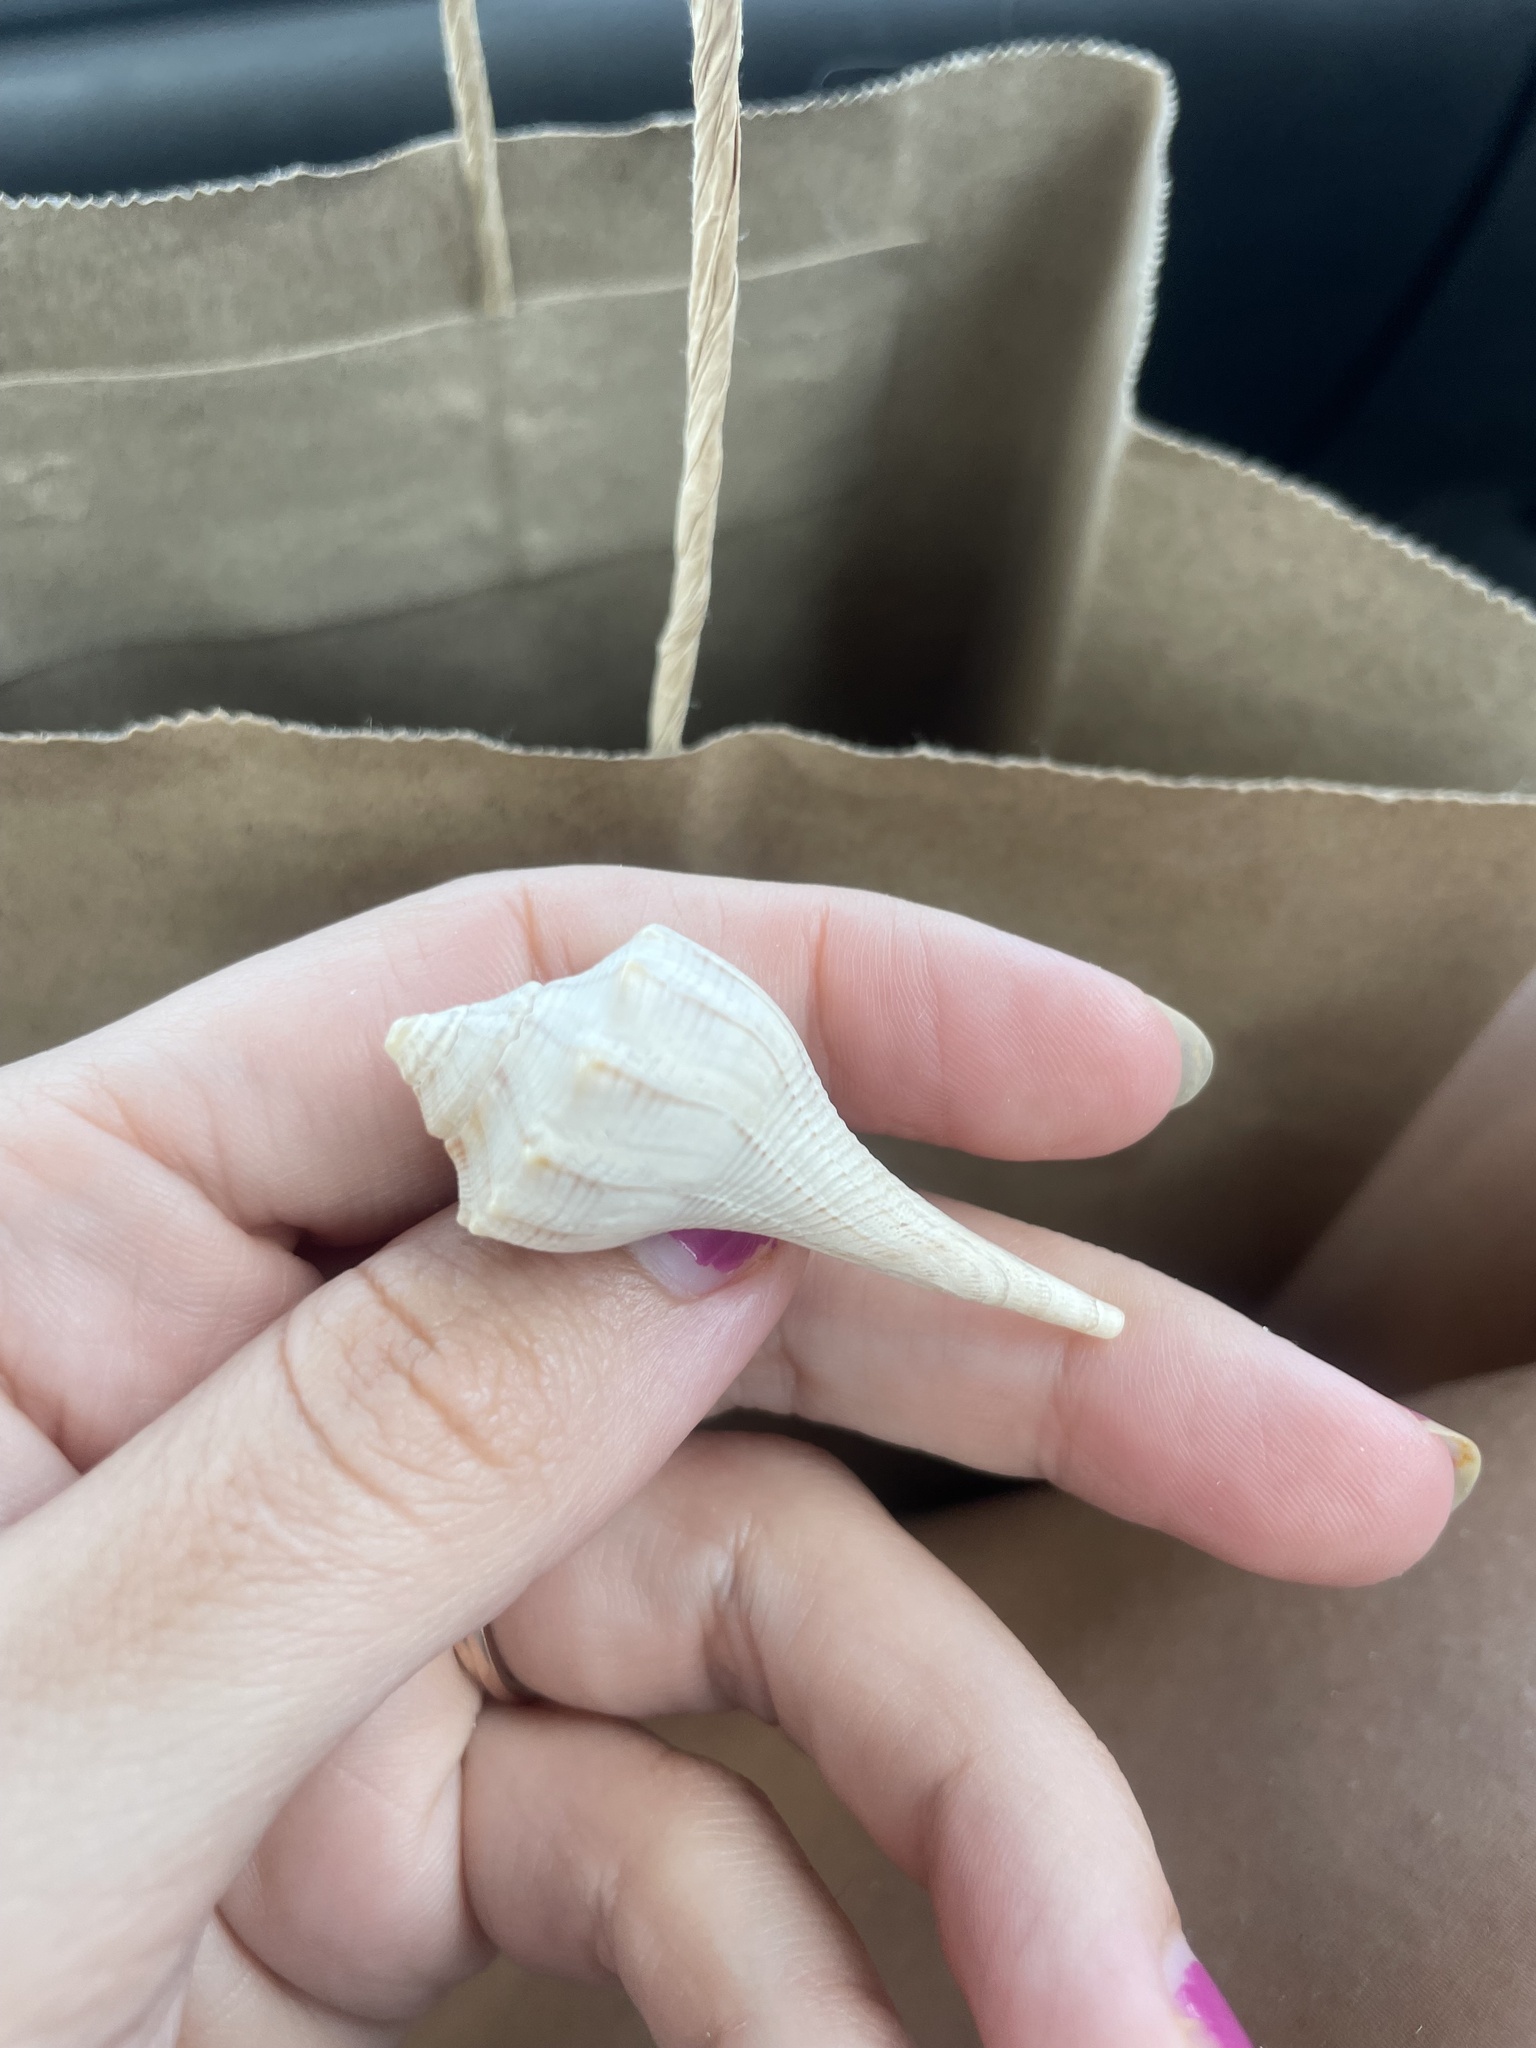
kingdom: Animalia
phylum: Mollusca
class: Gastropoda
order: Neogastropoda
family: Busyconidae
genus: Sinistrofulgur
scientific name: Sinistrofulgur sinistrum
